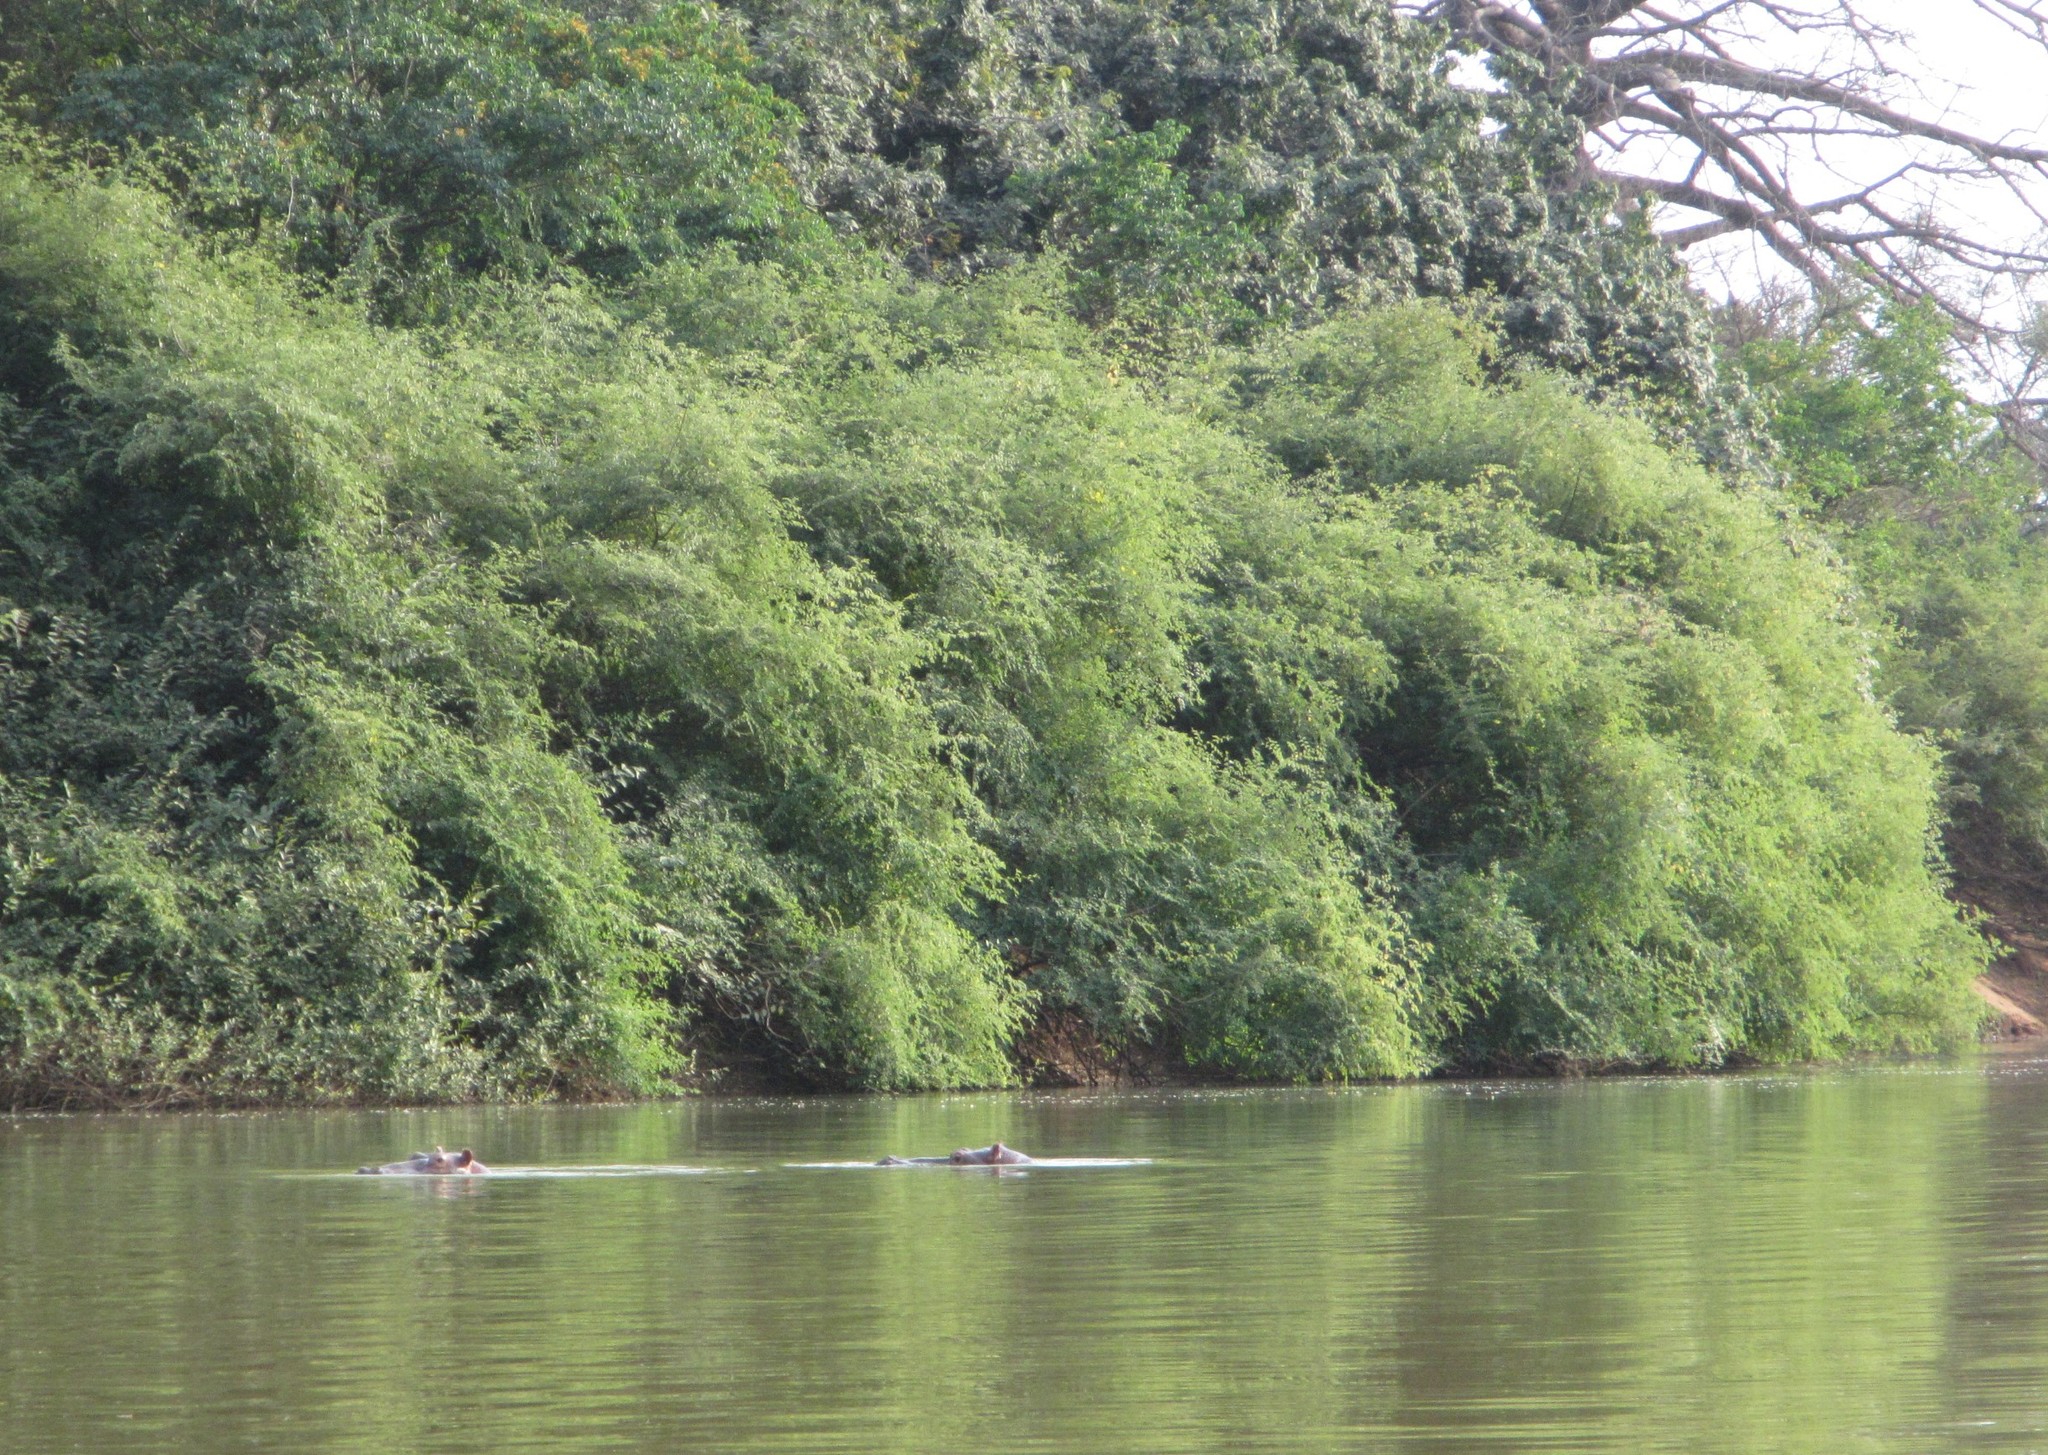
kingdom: Animalia
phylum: Chordata
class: Mammalia
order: Artiodactyla
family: Hippopotamidae
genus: Hippopotamus
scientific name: Hippopotamus amphibius
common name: Common hippopotamus
